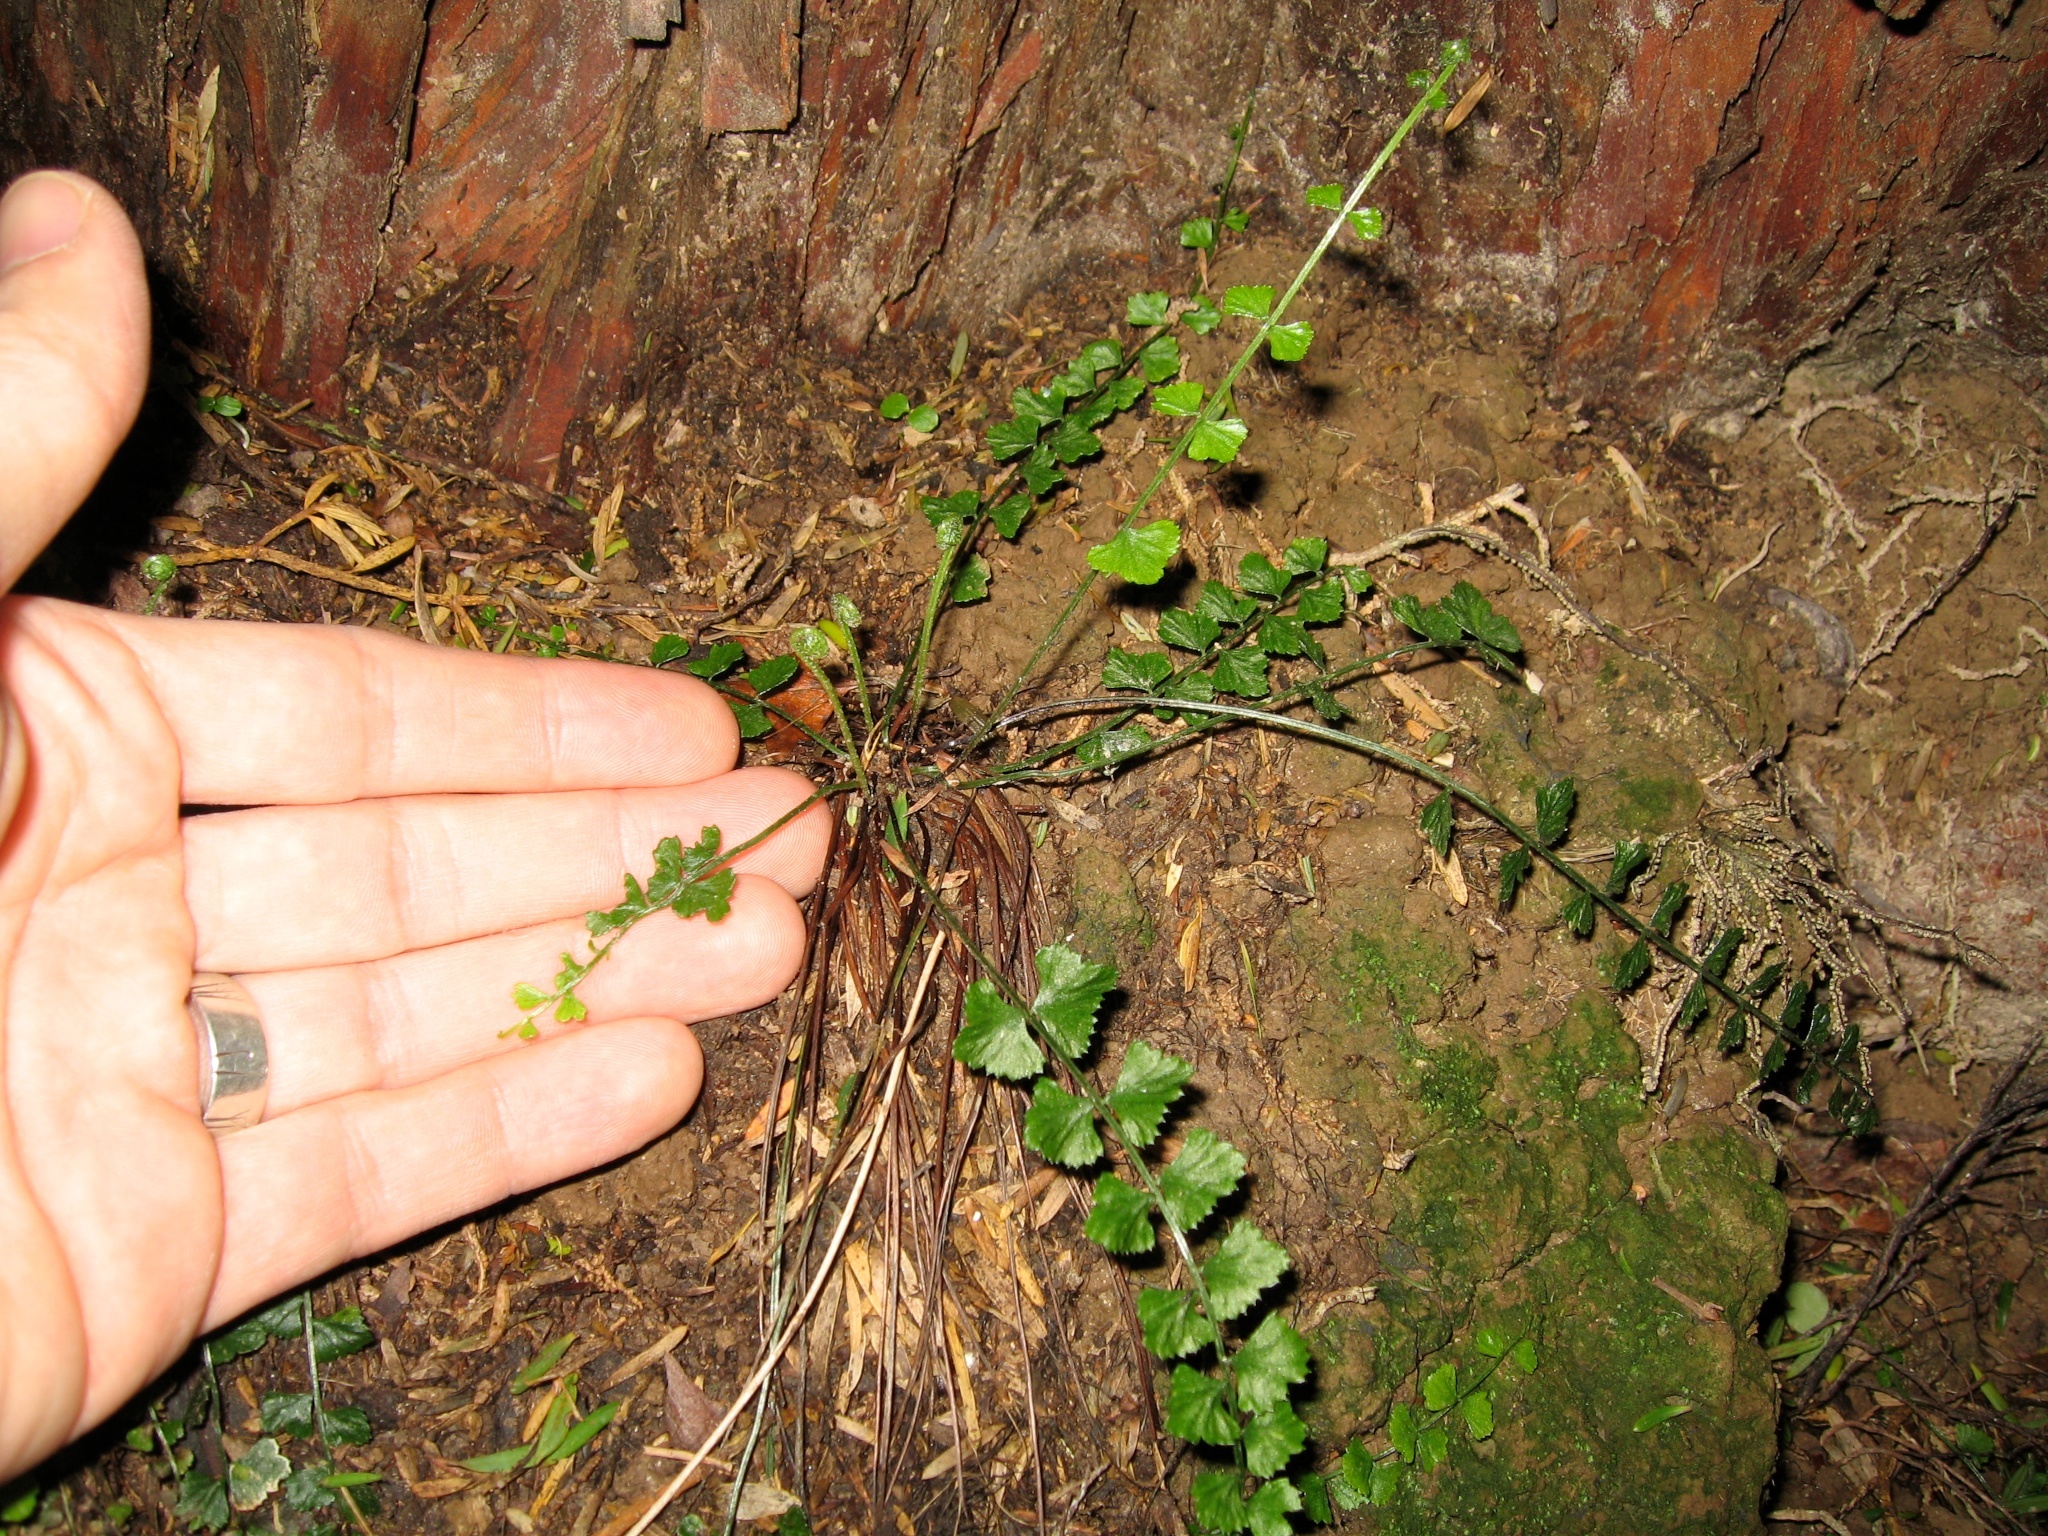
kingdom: Plantae
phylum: Tracheophyta
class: Polypodiopsida
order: Polypodiales
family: Aspleniaceae
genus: Asplenium
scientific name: Asplenium flabellifolium
